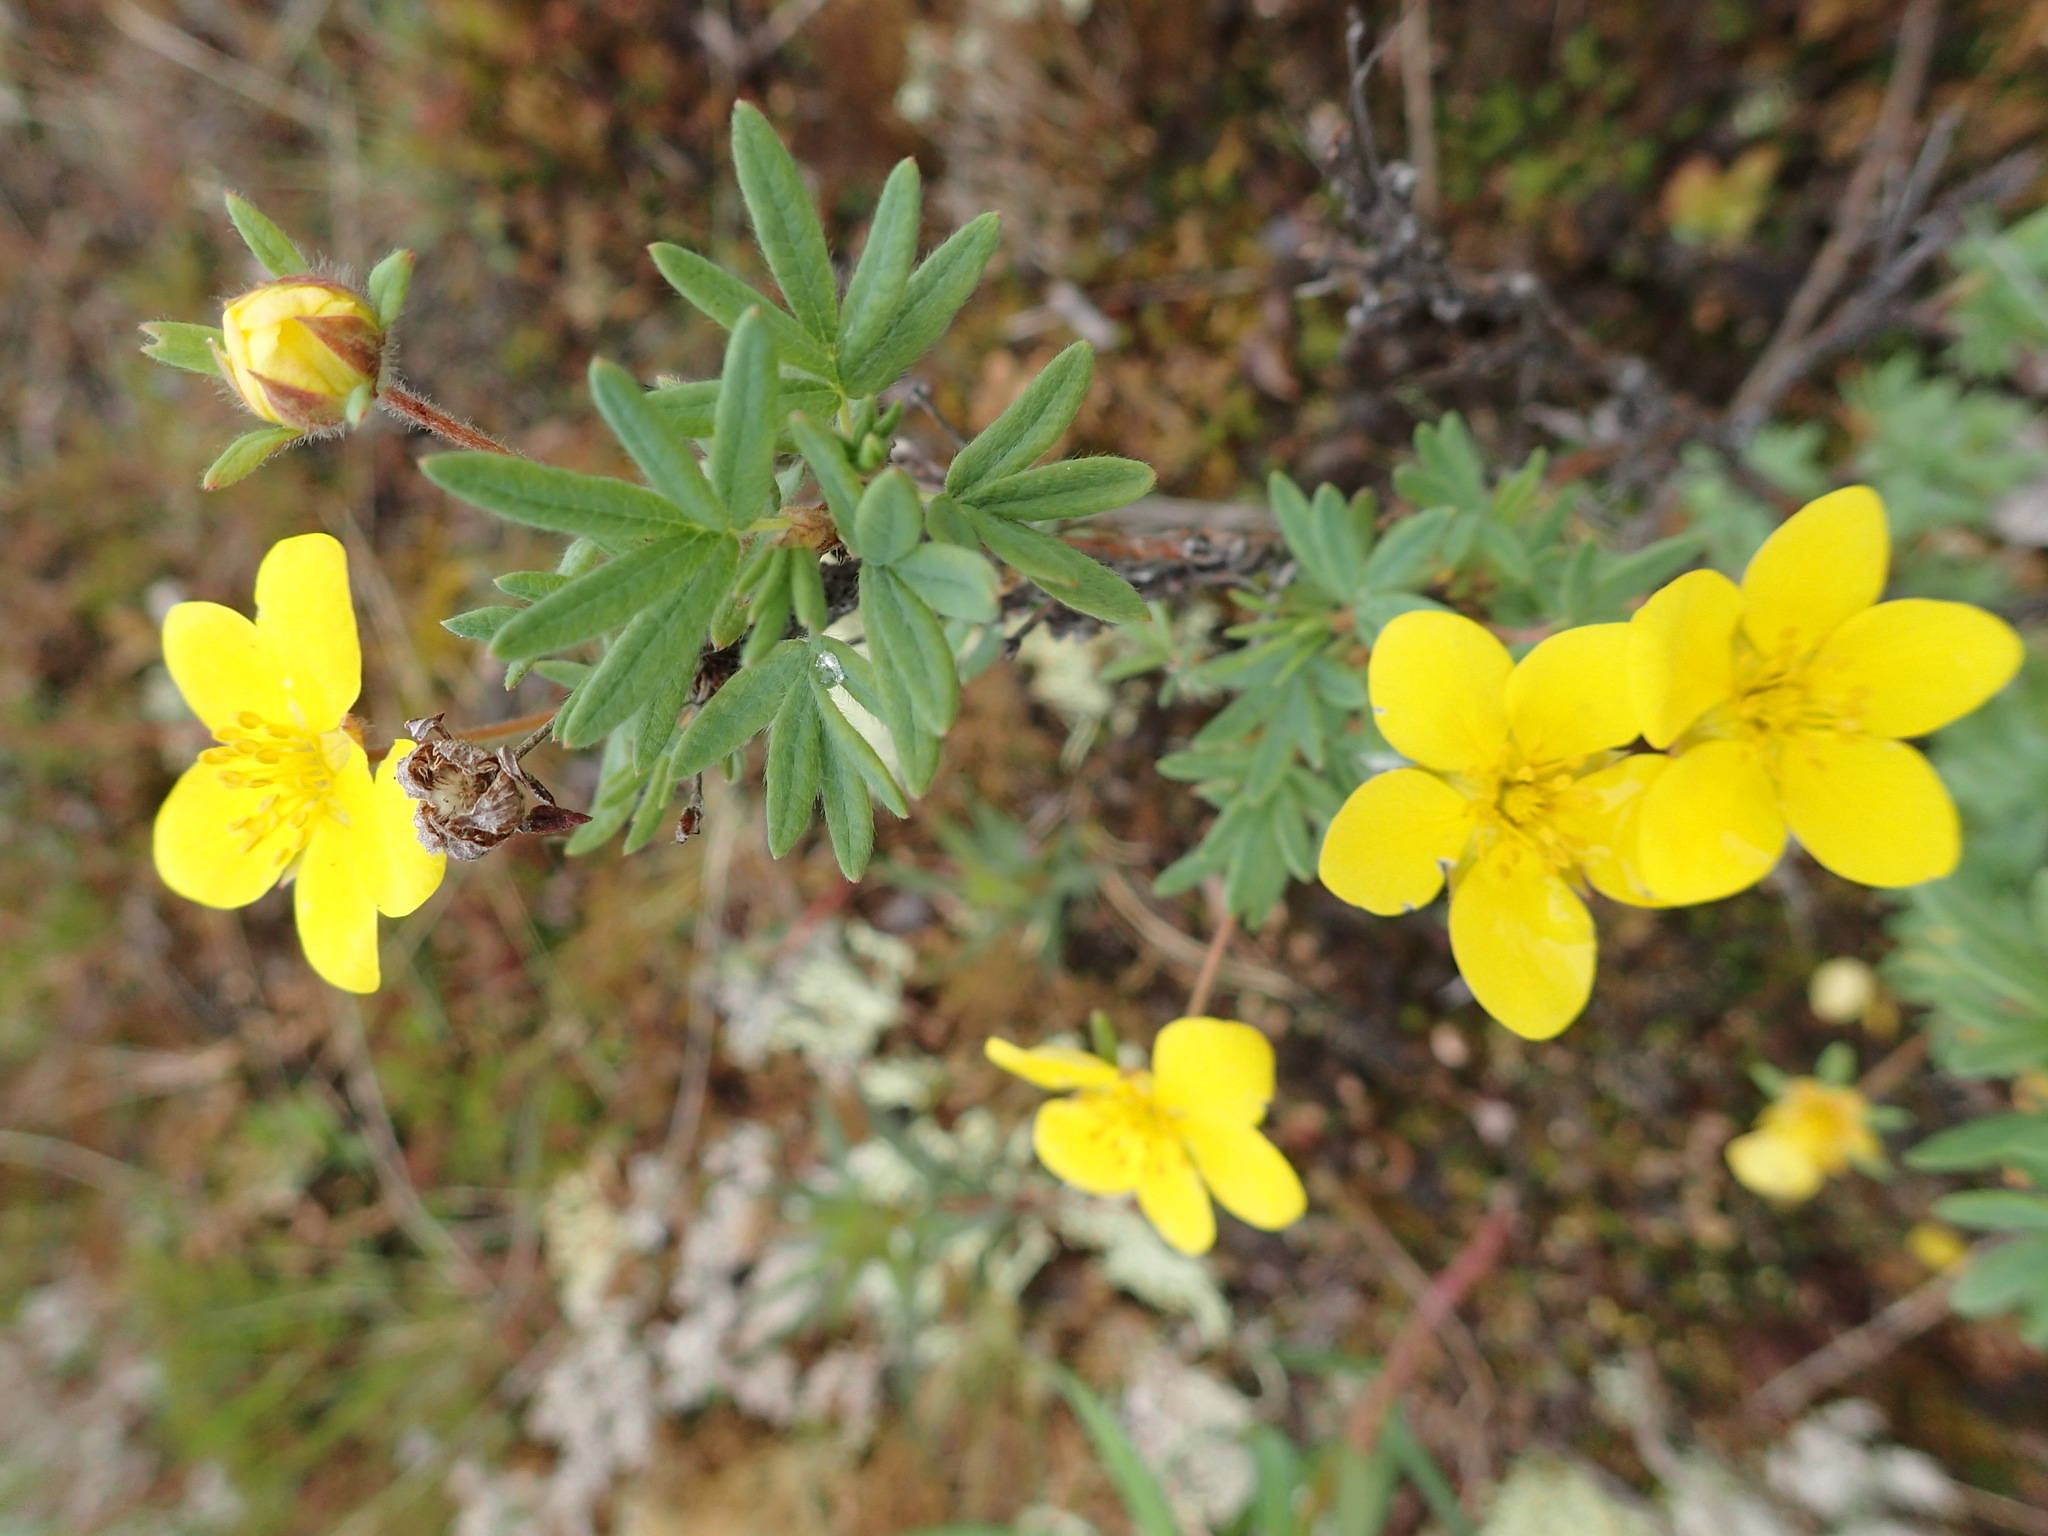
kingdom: Plantae
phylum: Tracheophyta
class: Magnoliopsida
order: Rosales
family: Rosaceae
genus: Dasiphora
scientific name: Dasiphora fruticosa
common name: Shrubby cinquefoil
